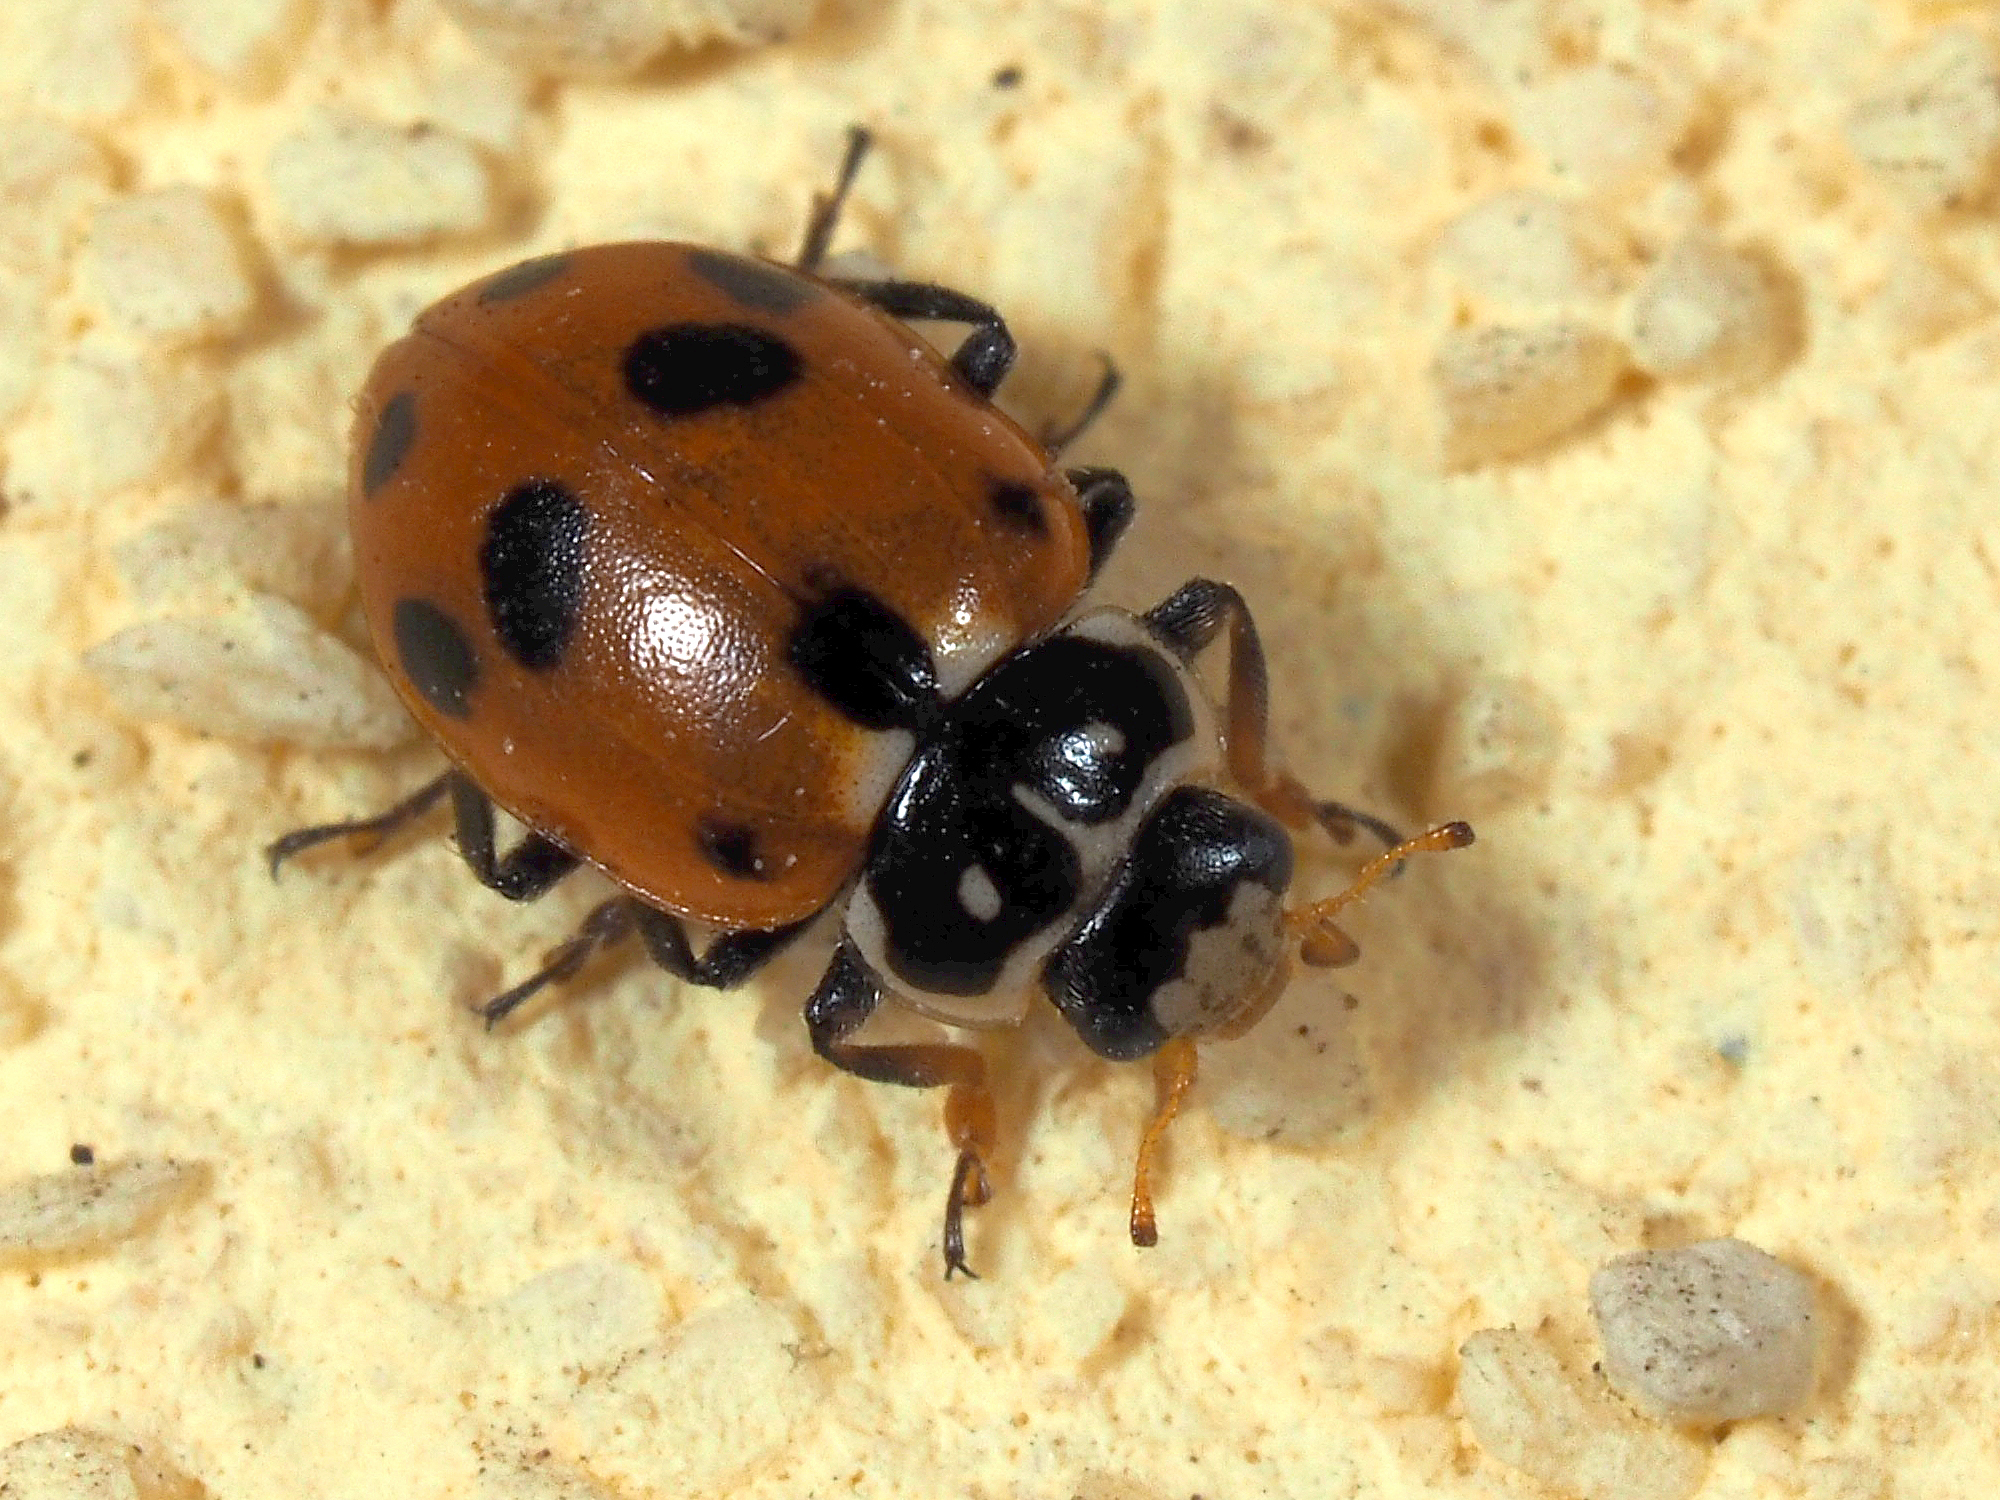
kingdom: Animalia
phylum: Arthropoda
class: Insecta
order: Coleoptera
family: Coccinellidae
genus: Hippodamia
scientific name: Hippodamia variegata
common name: Ladybird beetle
